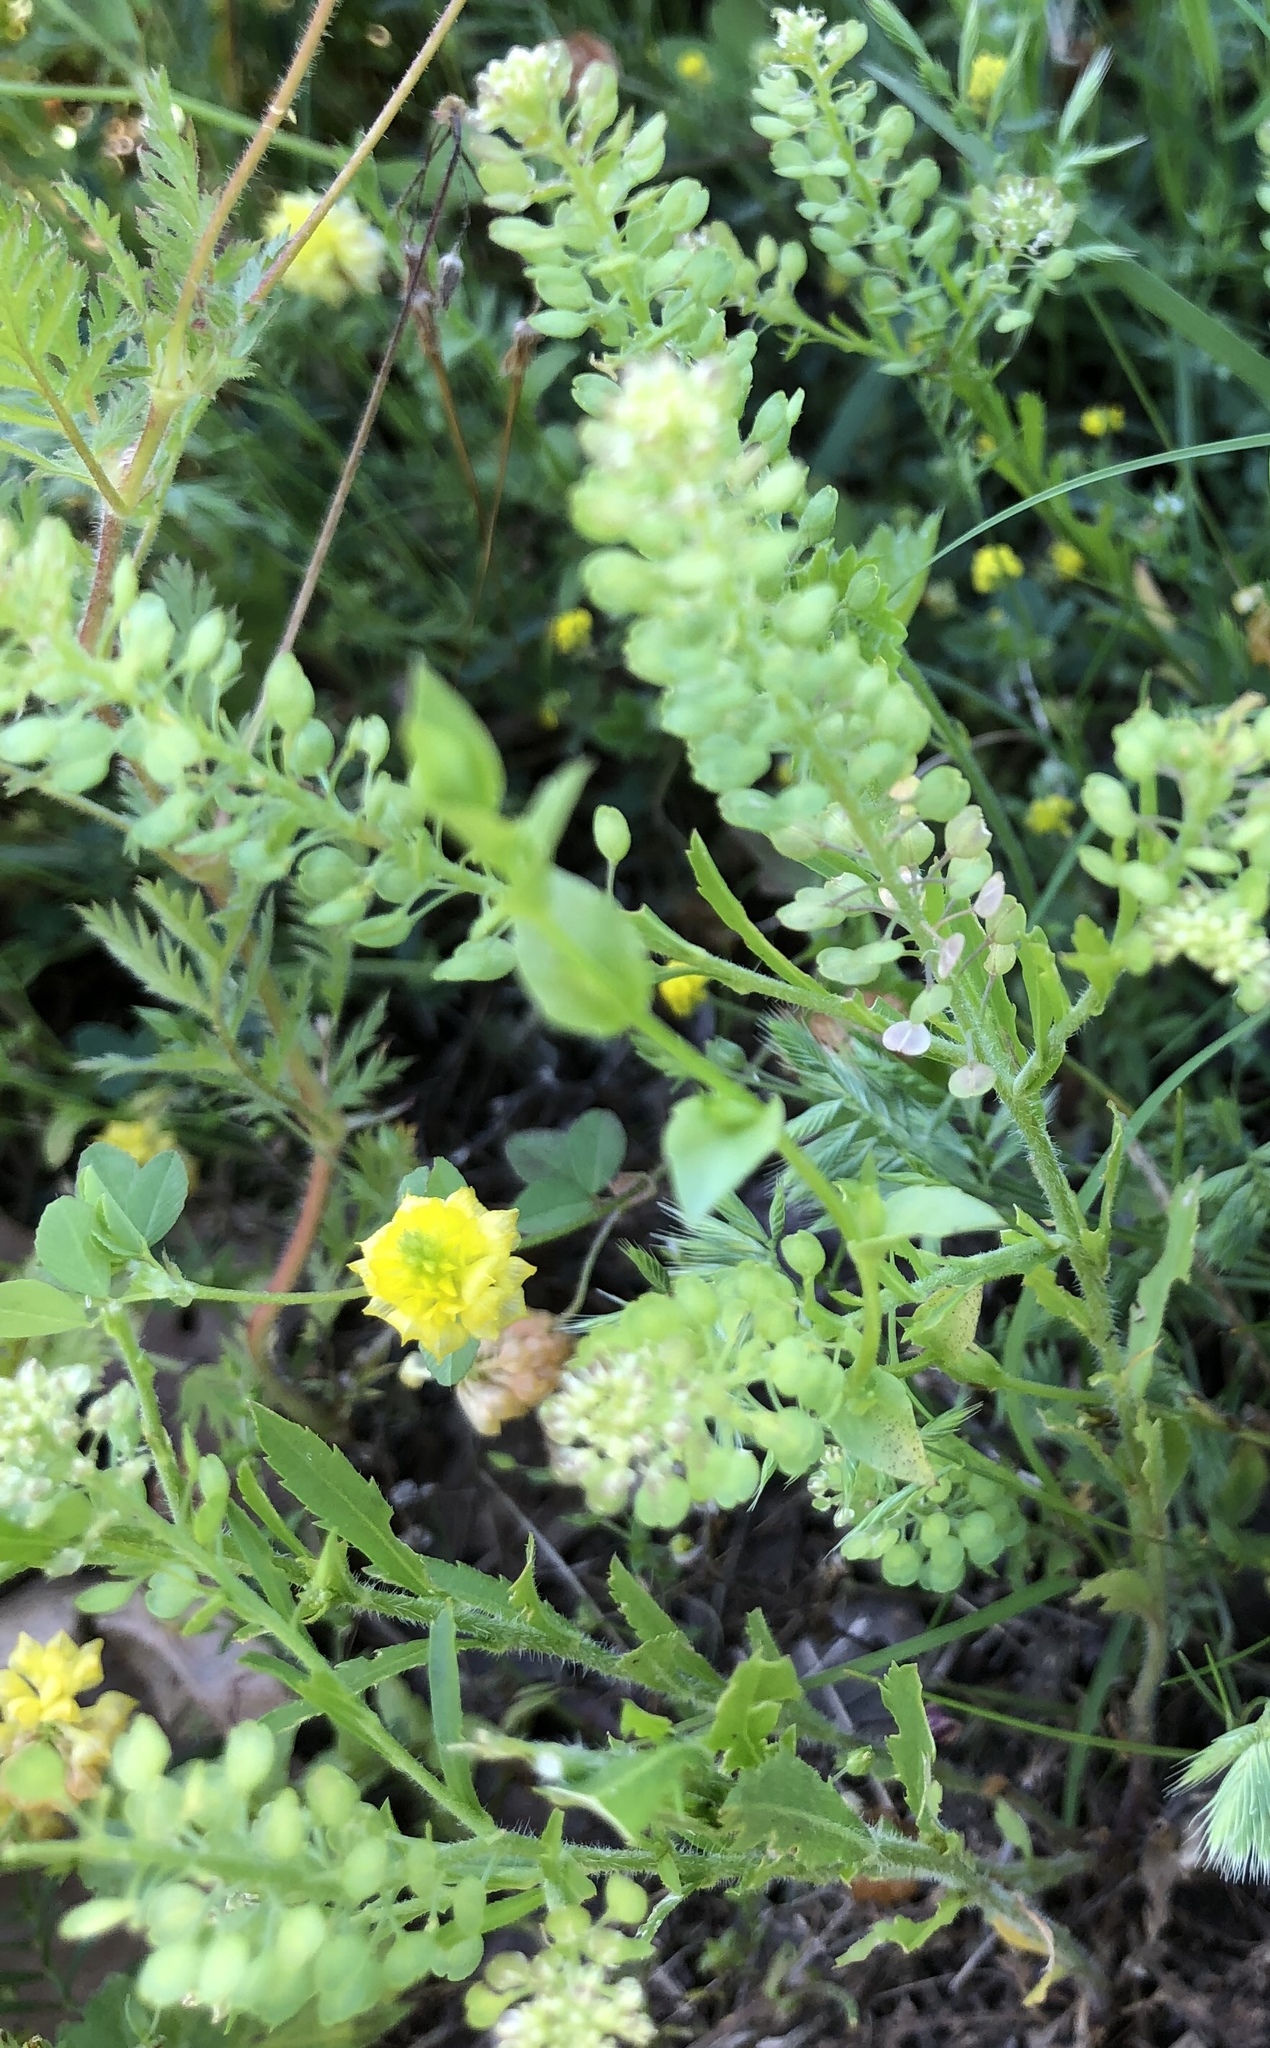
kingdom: Plantae
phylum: Tracheophyta
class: Magnoliopsida
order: Brassicales
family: Brassicaceae
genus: Lepidium
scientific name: Lepidium virginicum
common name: Least pepperwort
